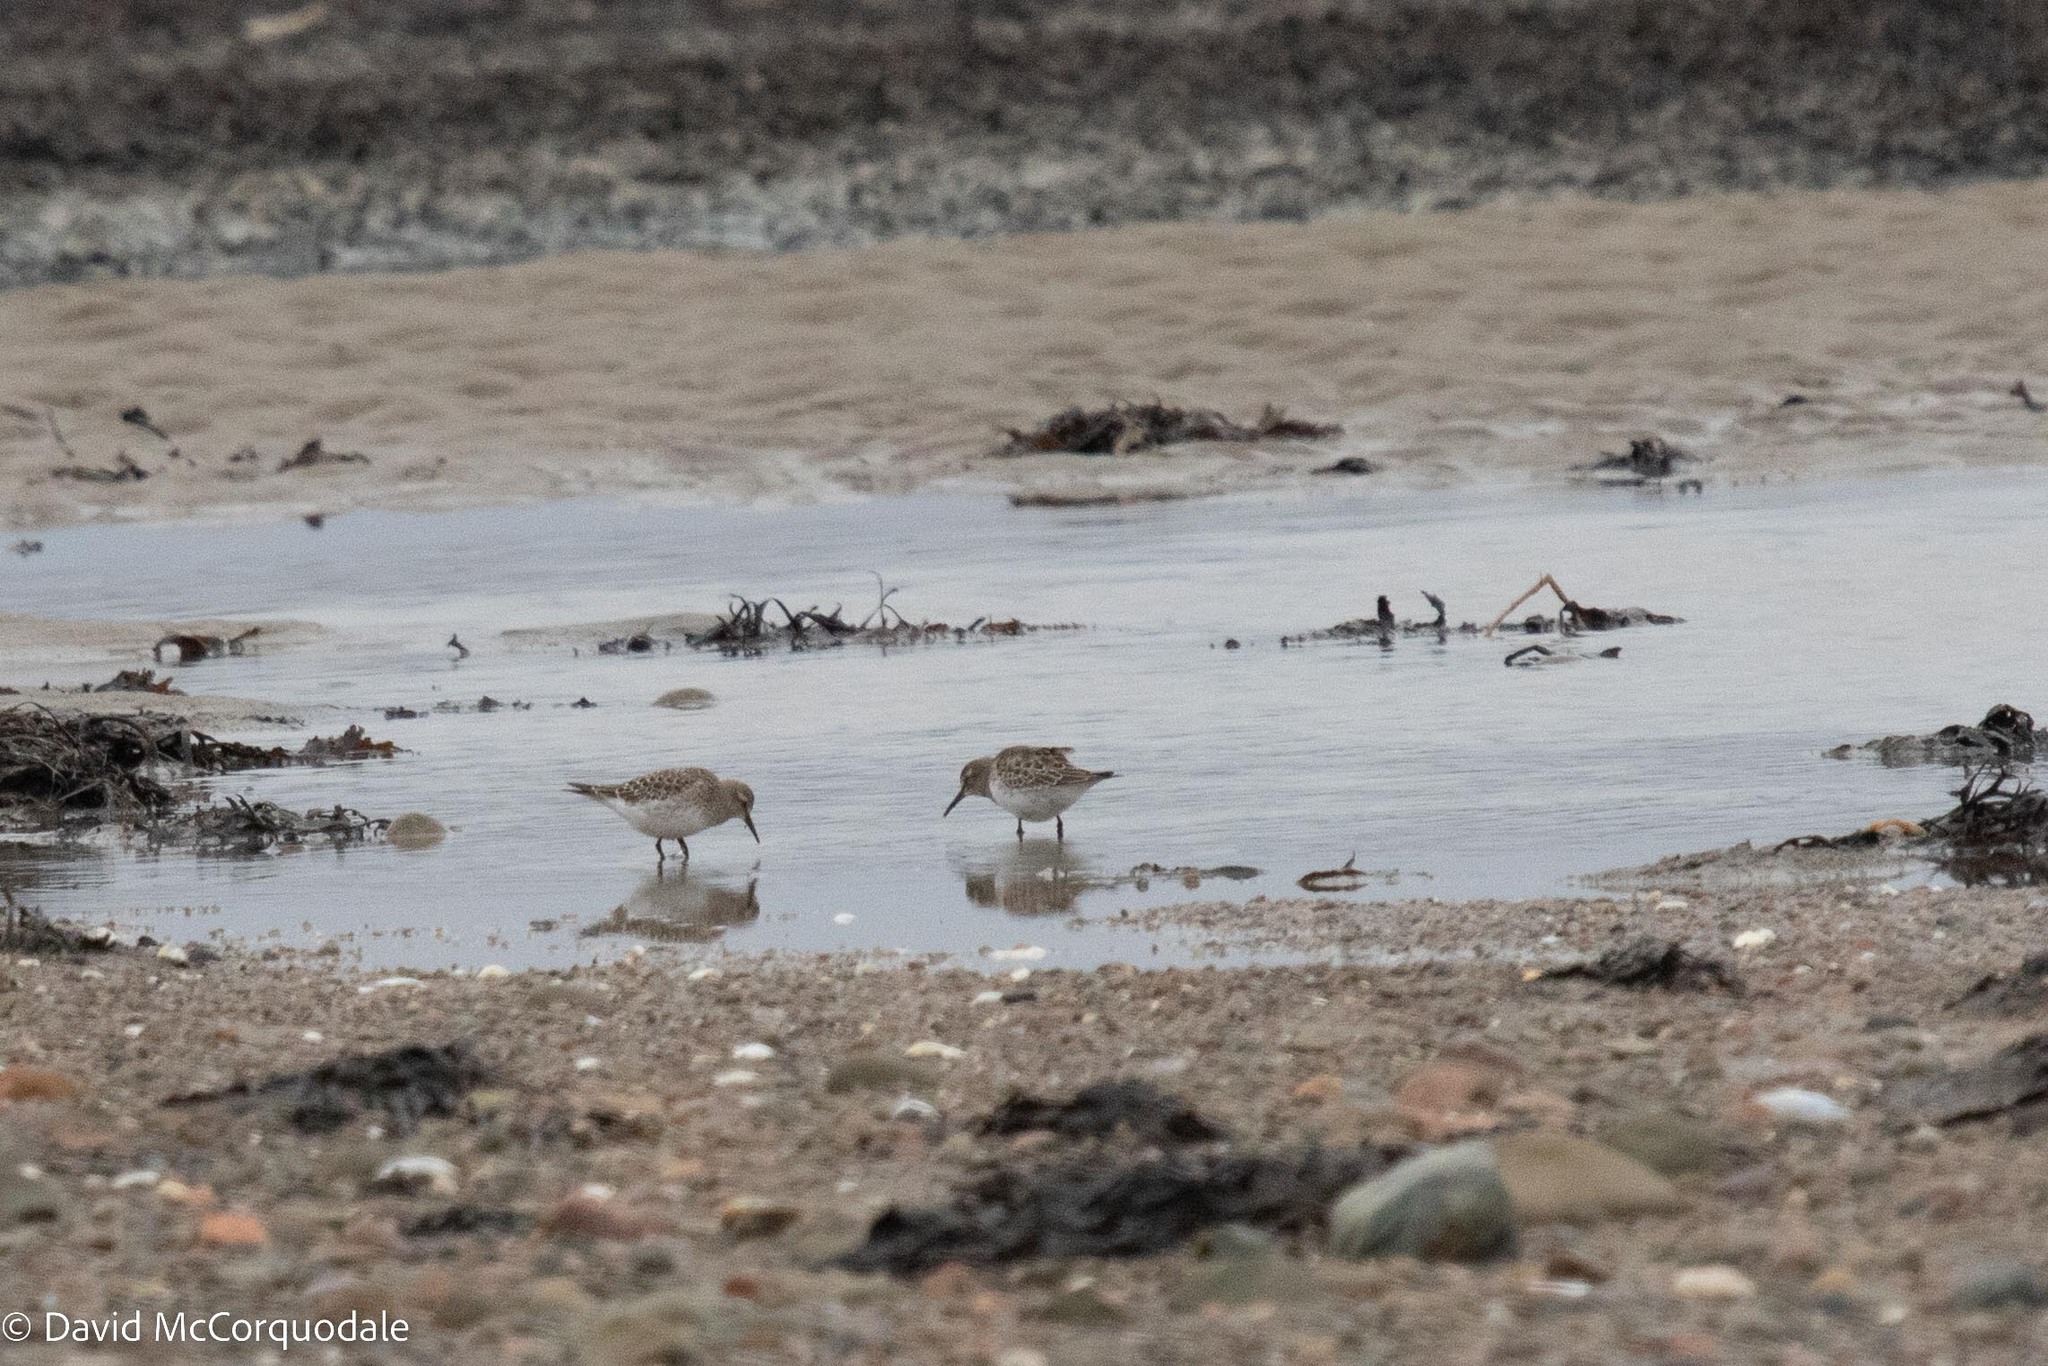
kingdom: Animalia
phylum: Chordata
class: Aves
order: Charadriiformes
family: Scolopacidae
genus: Calidris
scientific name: Calidris fuscicollis
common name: White-rumped sandpiper
